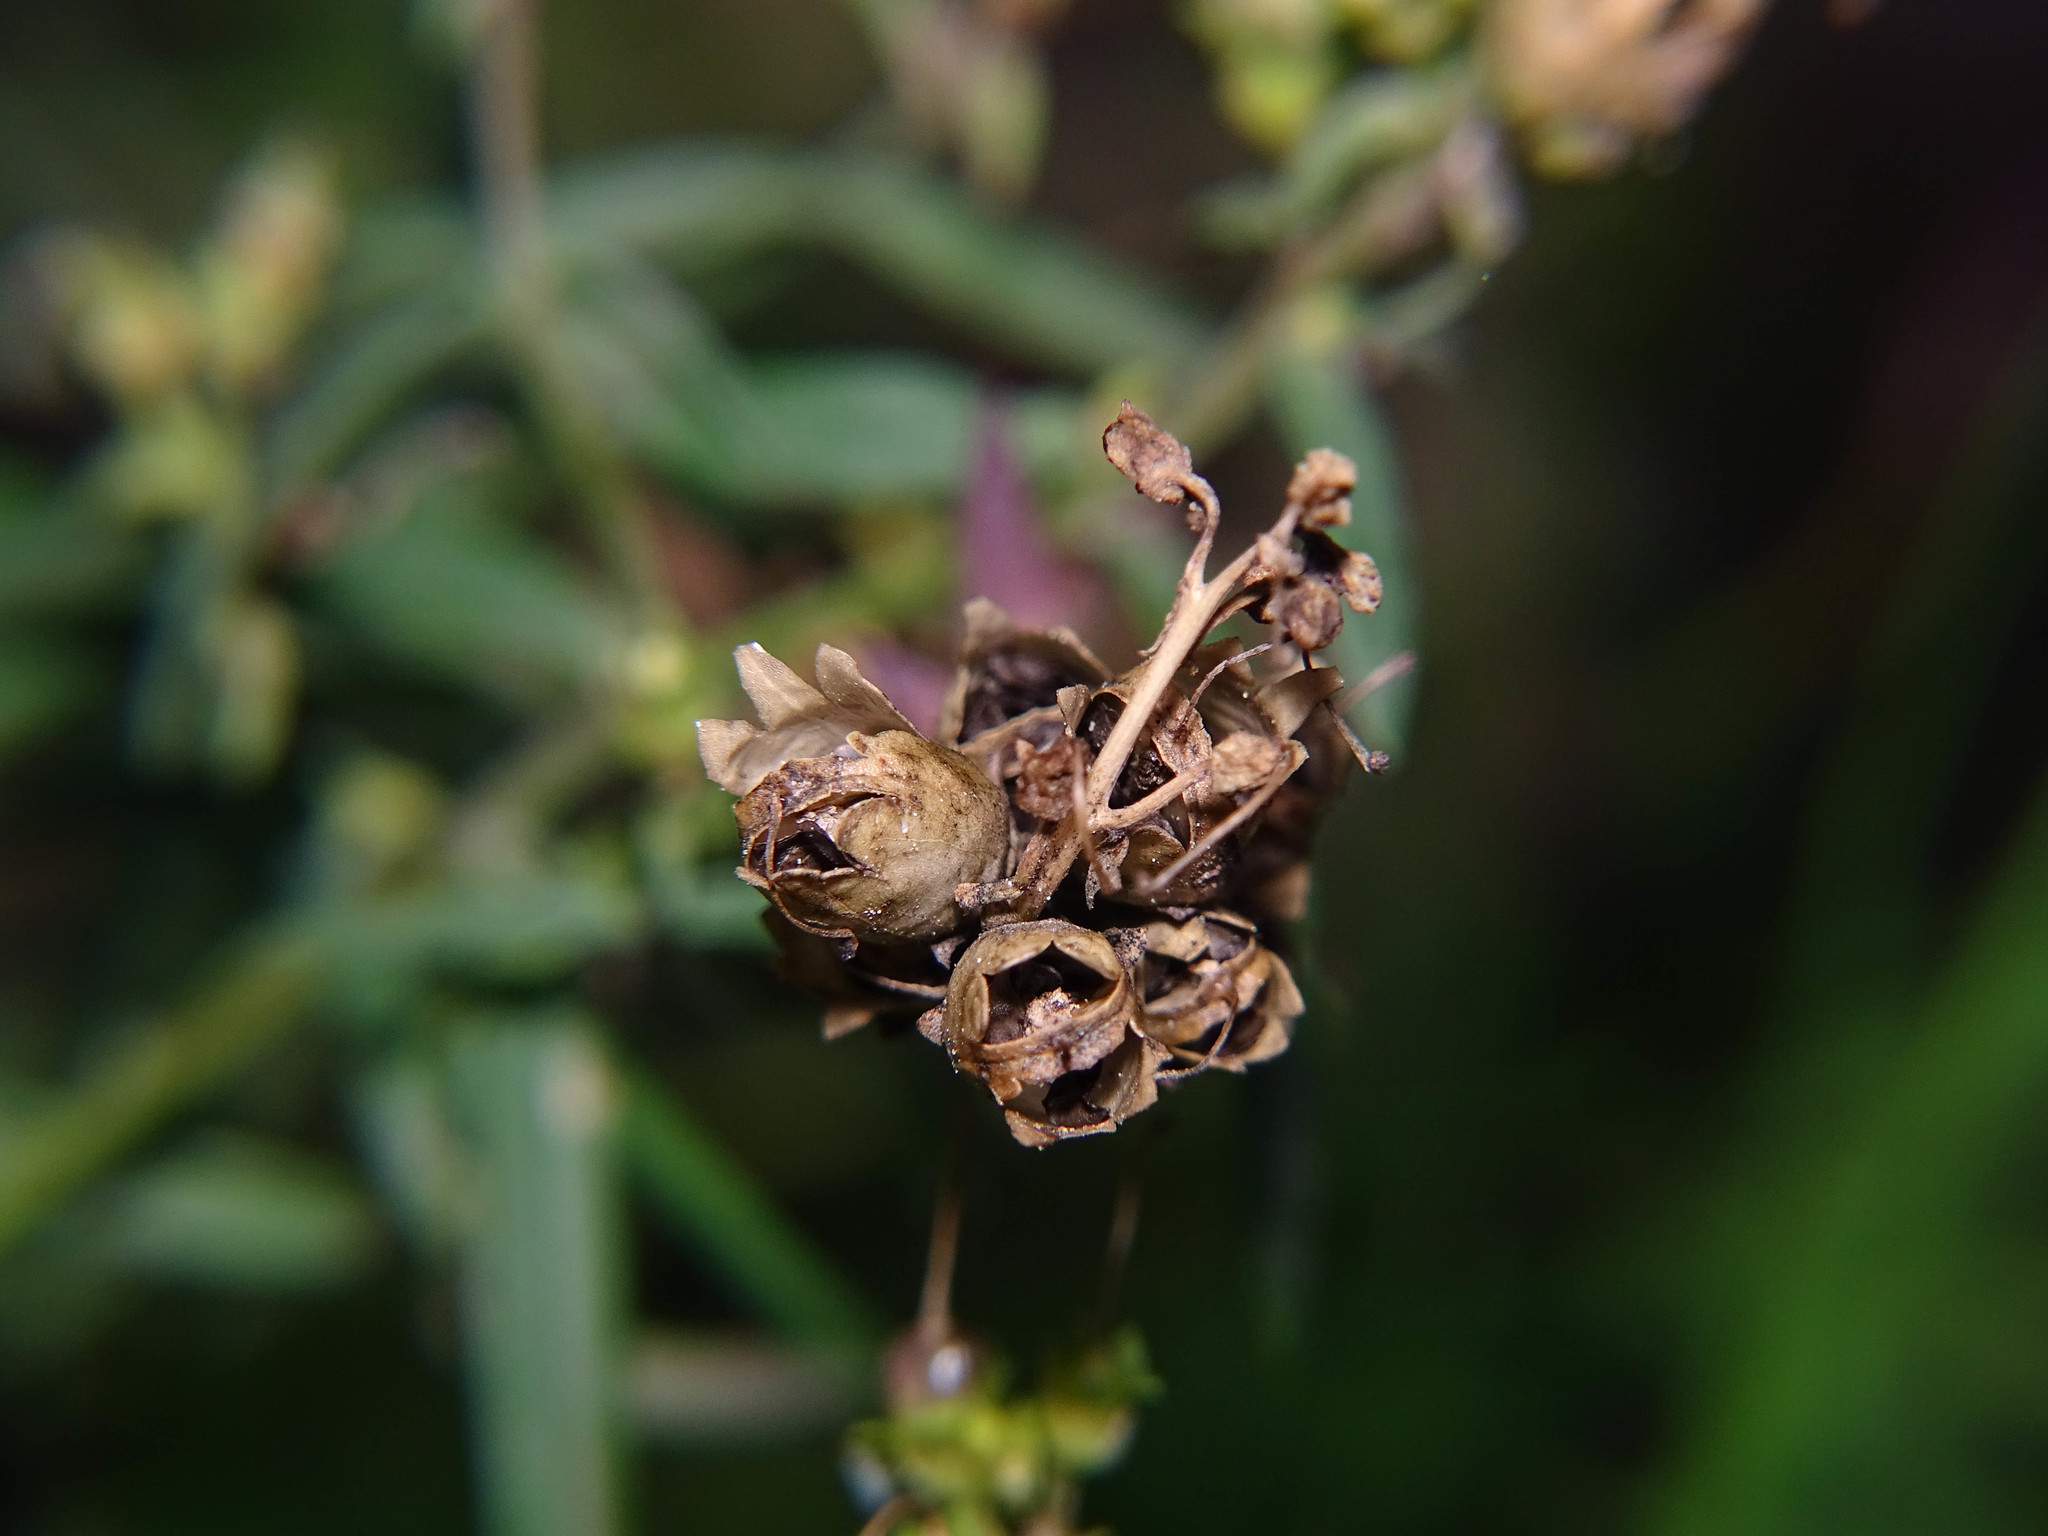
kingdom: Plantae
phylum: Tracheophyta
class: Magnoliopsida
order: Lamiales
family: Plantaginaceae
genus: Linaria
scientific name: Linaria vulgaris
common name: Butter and eggs
